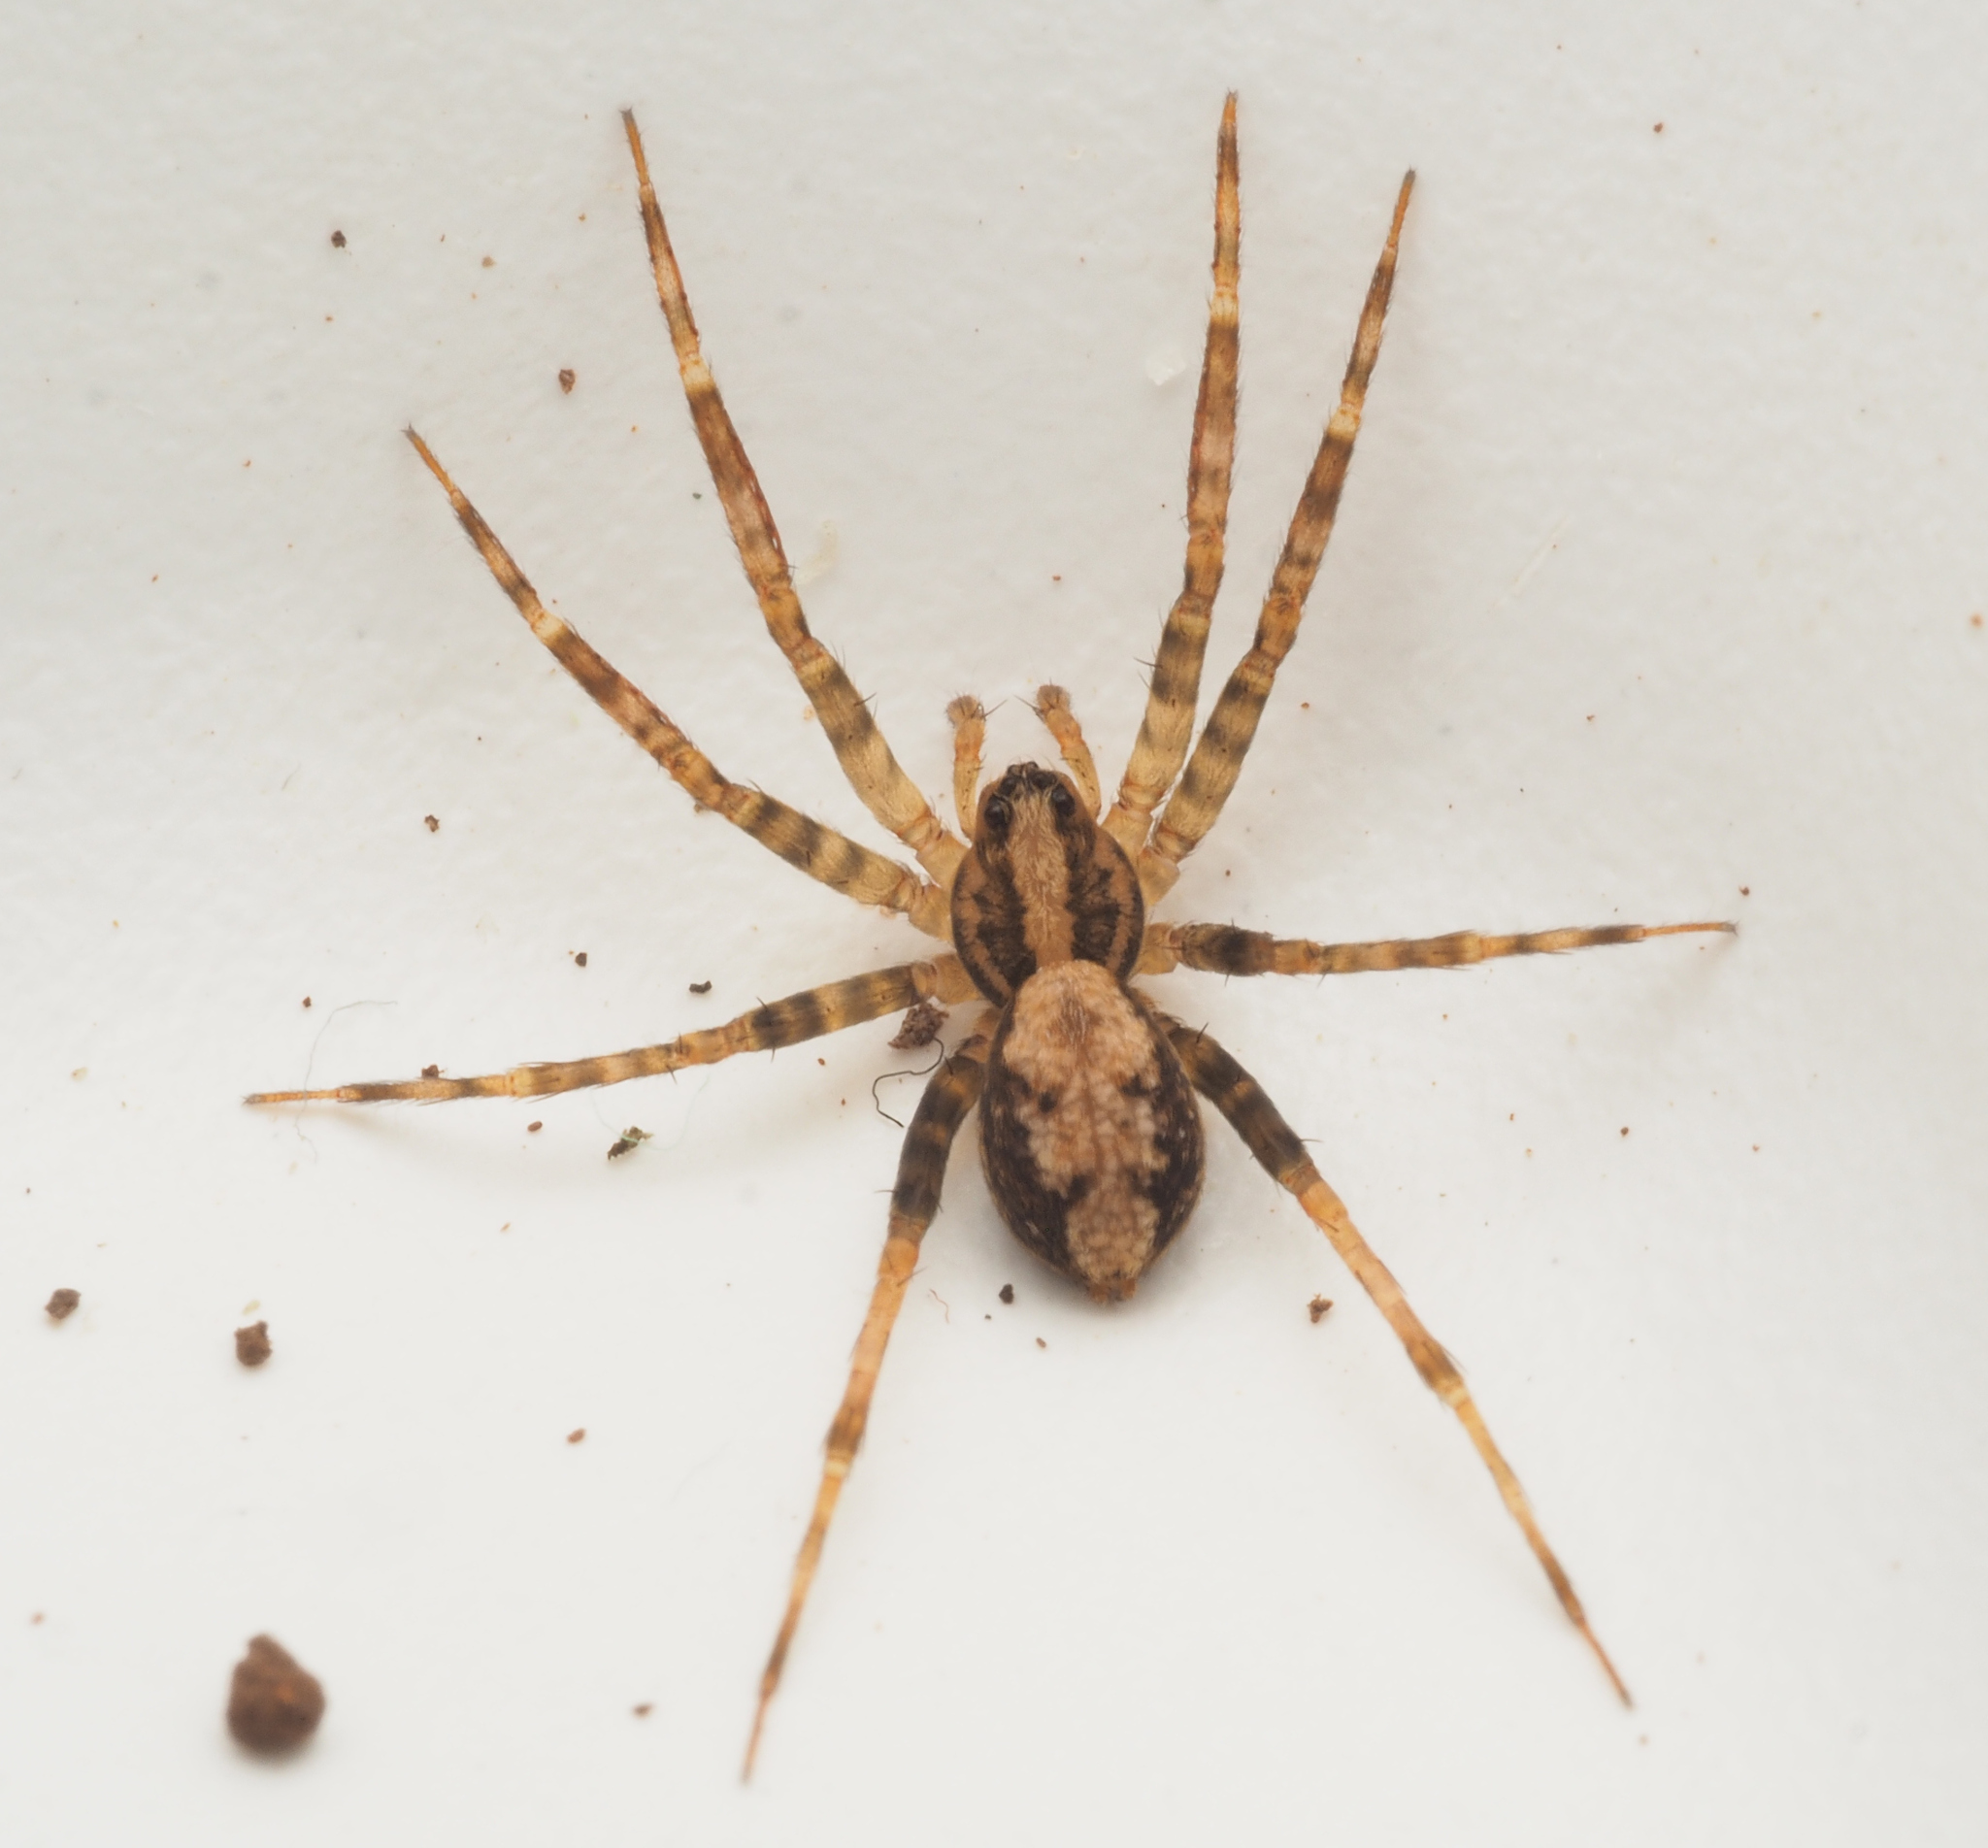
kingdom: Animalia
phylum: Arthropoda
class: Arachnida
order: Araneae
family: Toxopidae
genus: Toxopsoides
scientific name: Toxopsoides
